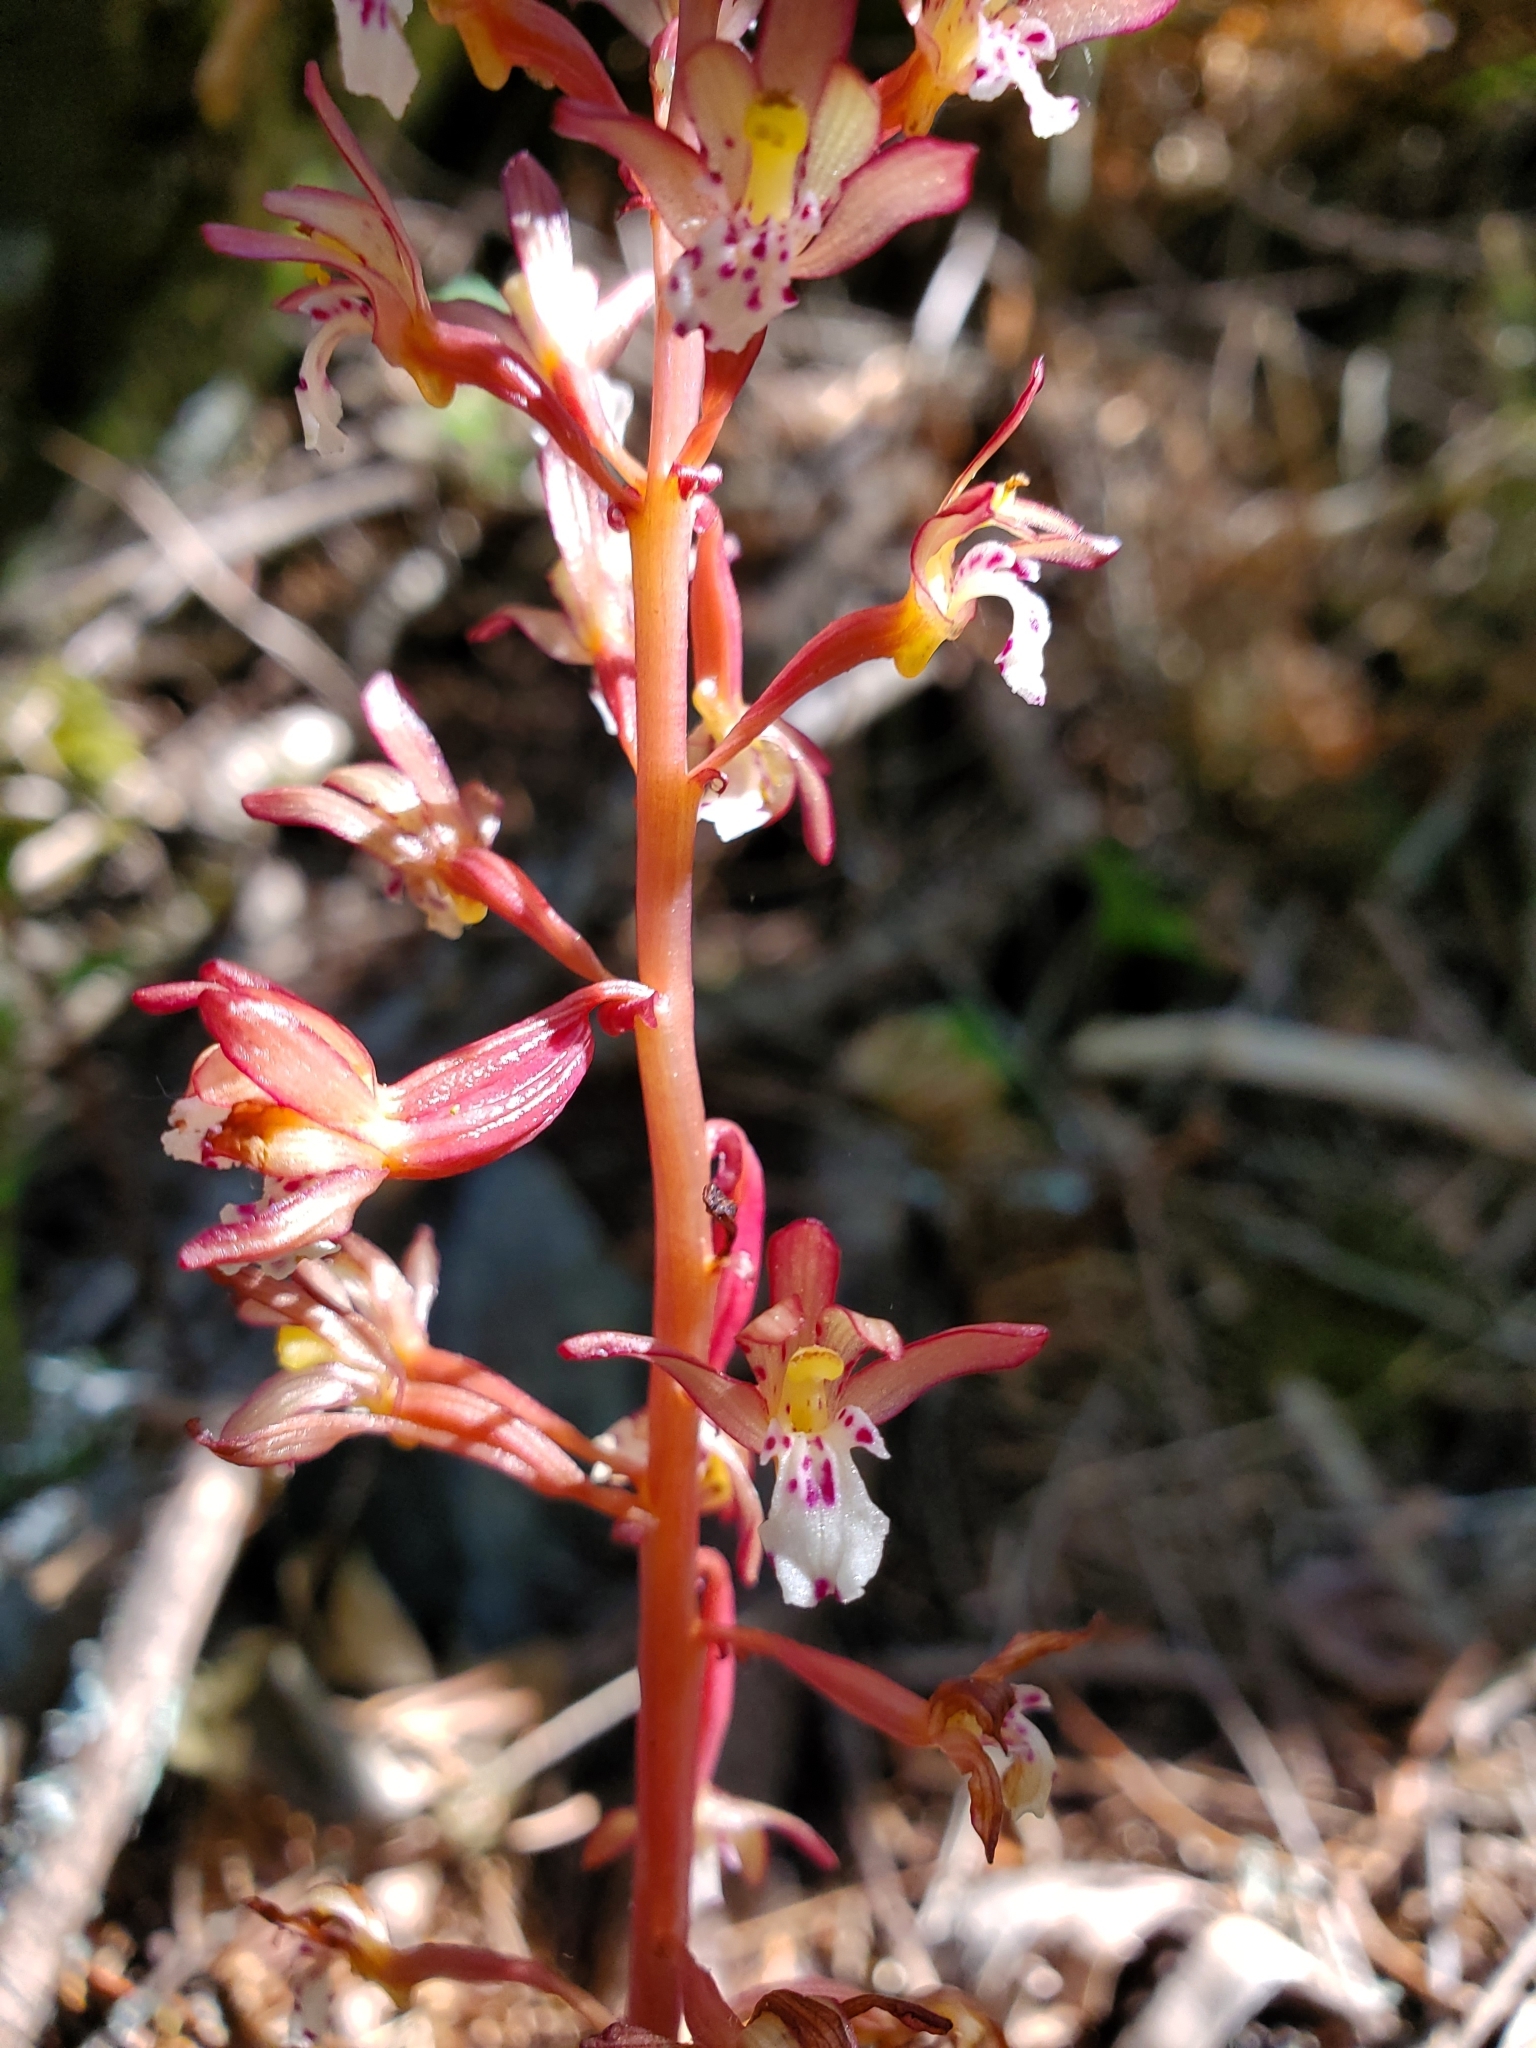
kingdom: Plantae
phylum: Tracheophyta
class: Liliopsida
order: Asparagales
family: Orchidaceae
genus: Corallorhiza
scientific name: Corallorhiza maculata
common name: Spotted coralroot
